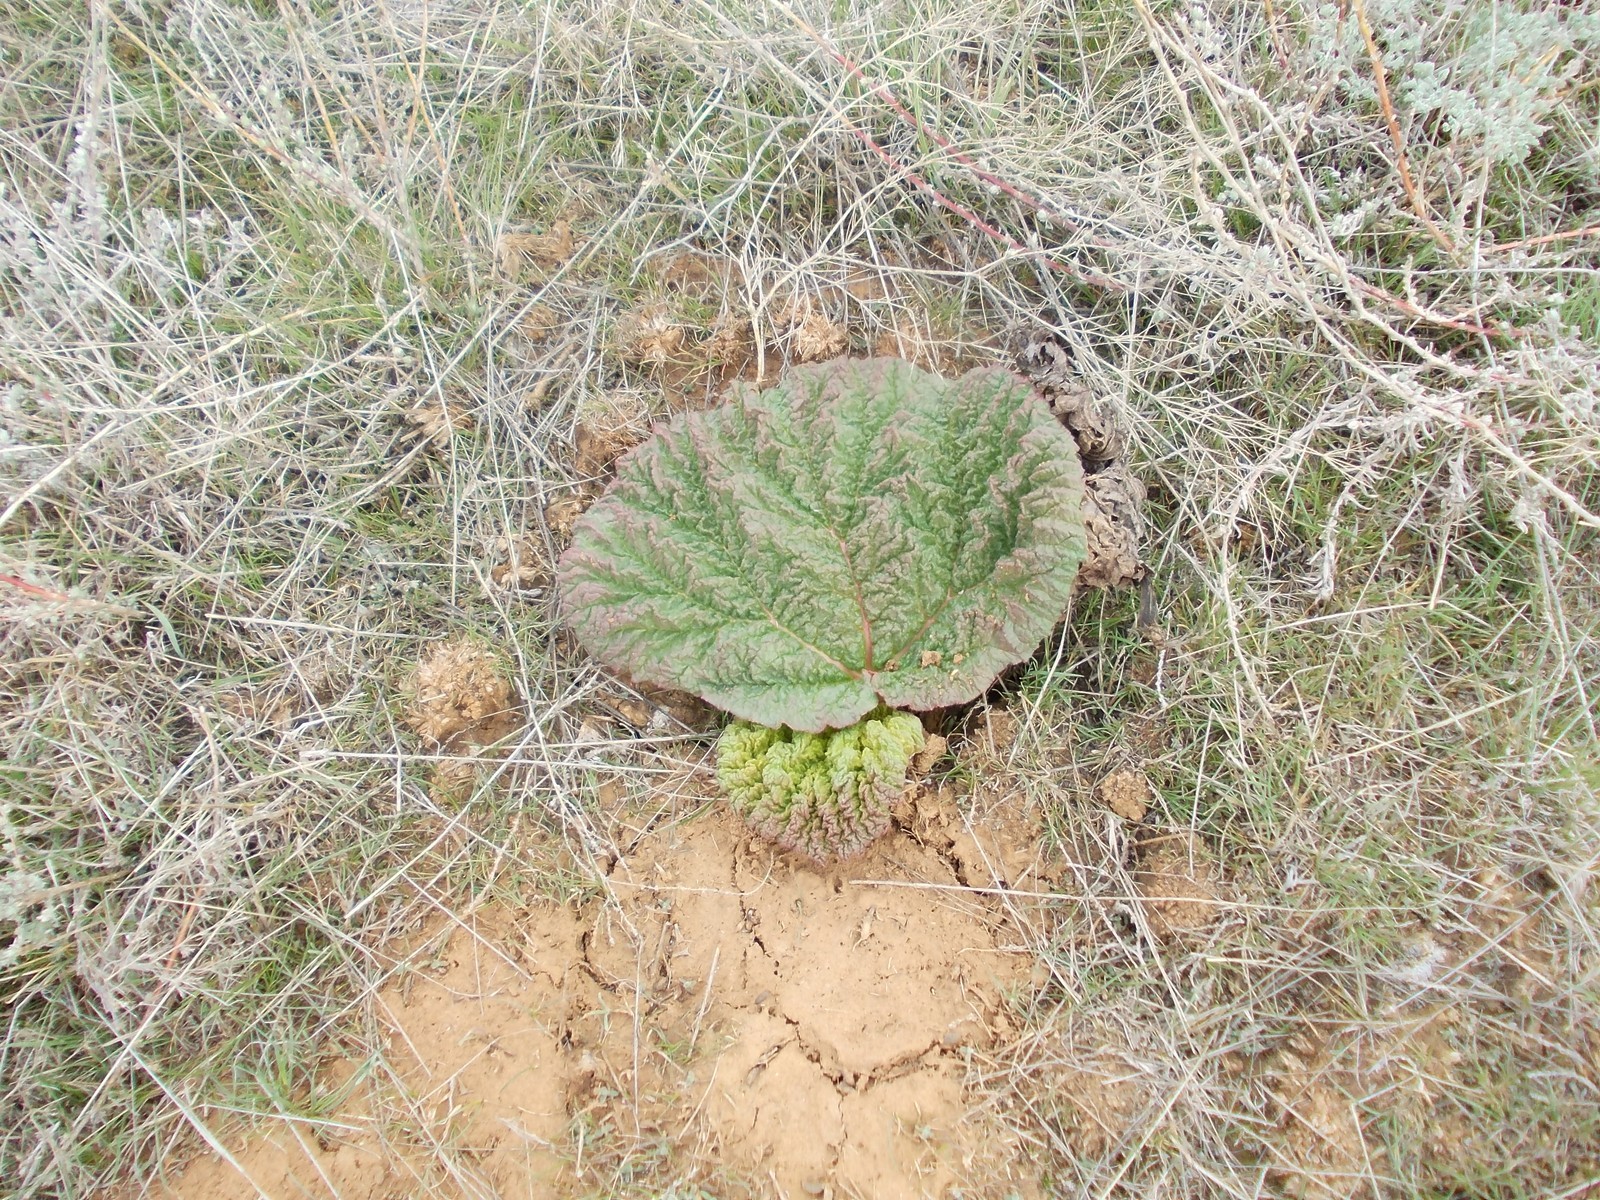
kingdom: Plantae
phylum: Tracheophyta
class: Magnoliopsida
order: Caryophyllales
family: Polygonaceae
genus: Rheum
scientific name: Rheum tataricum
